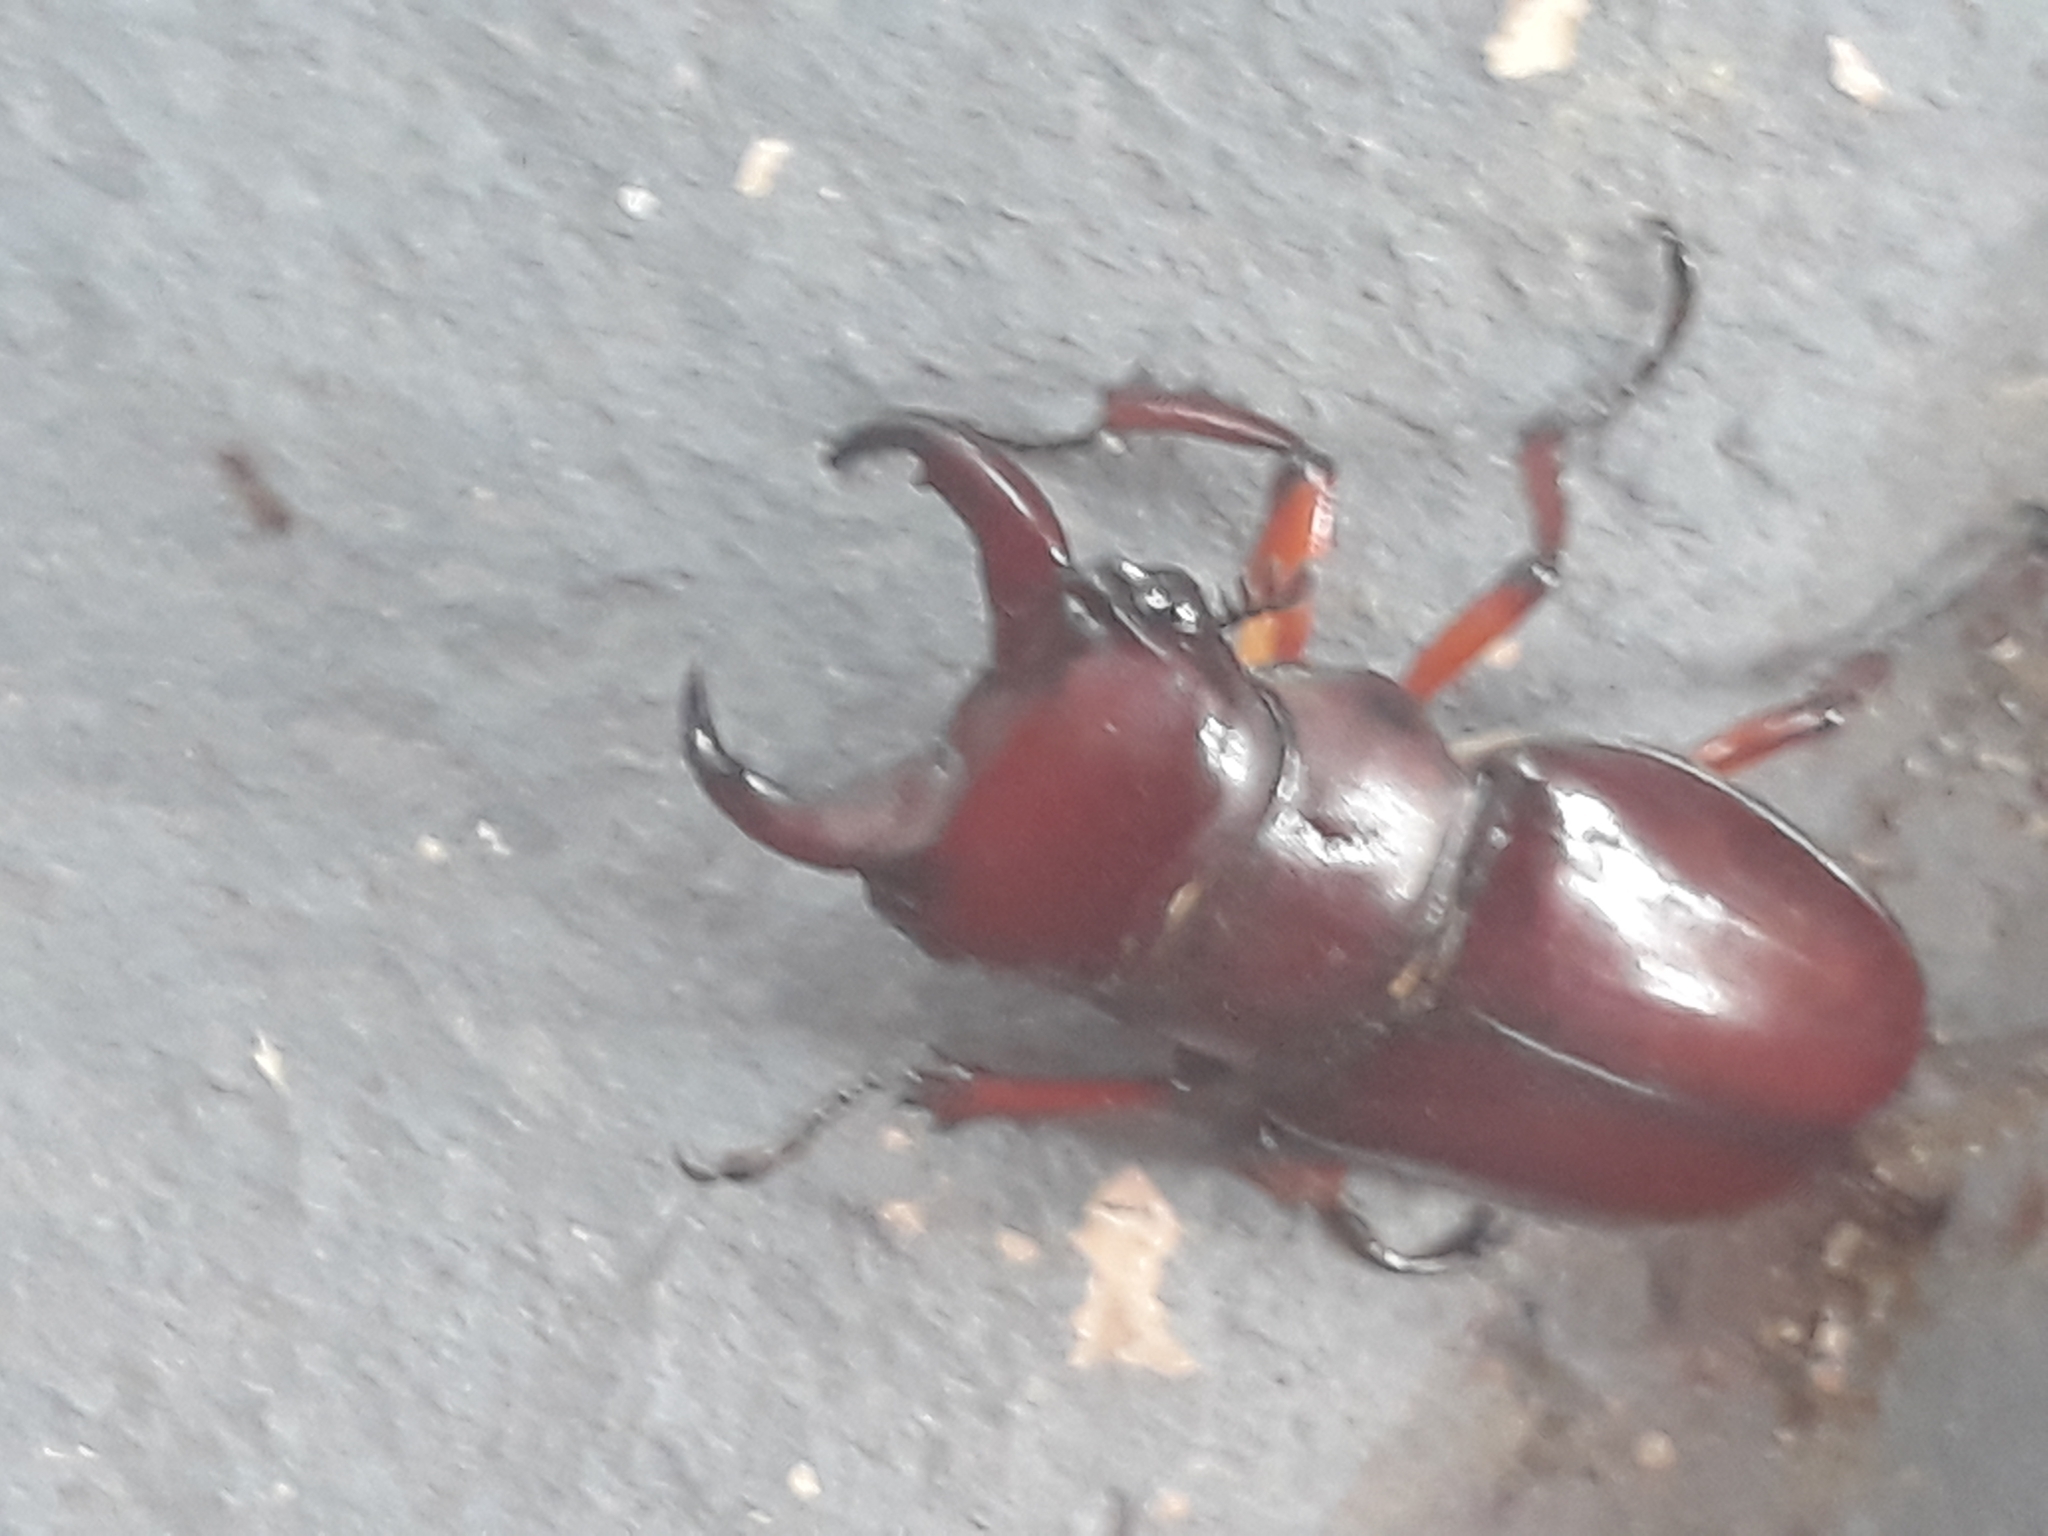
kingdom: Animalia
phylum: Arthropoda
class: Insecta
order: Coleoptera
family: Lucanidae
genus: Lucanus
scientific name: Lucanus capreolus
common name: Stag beetle
